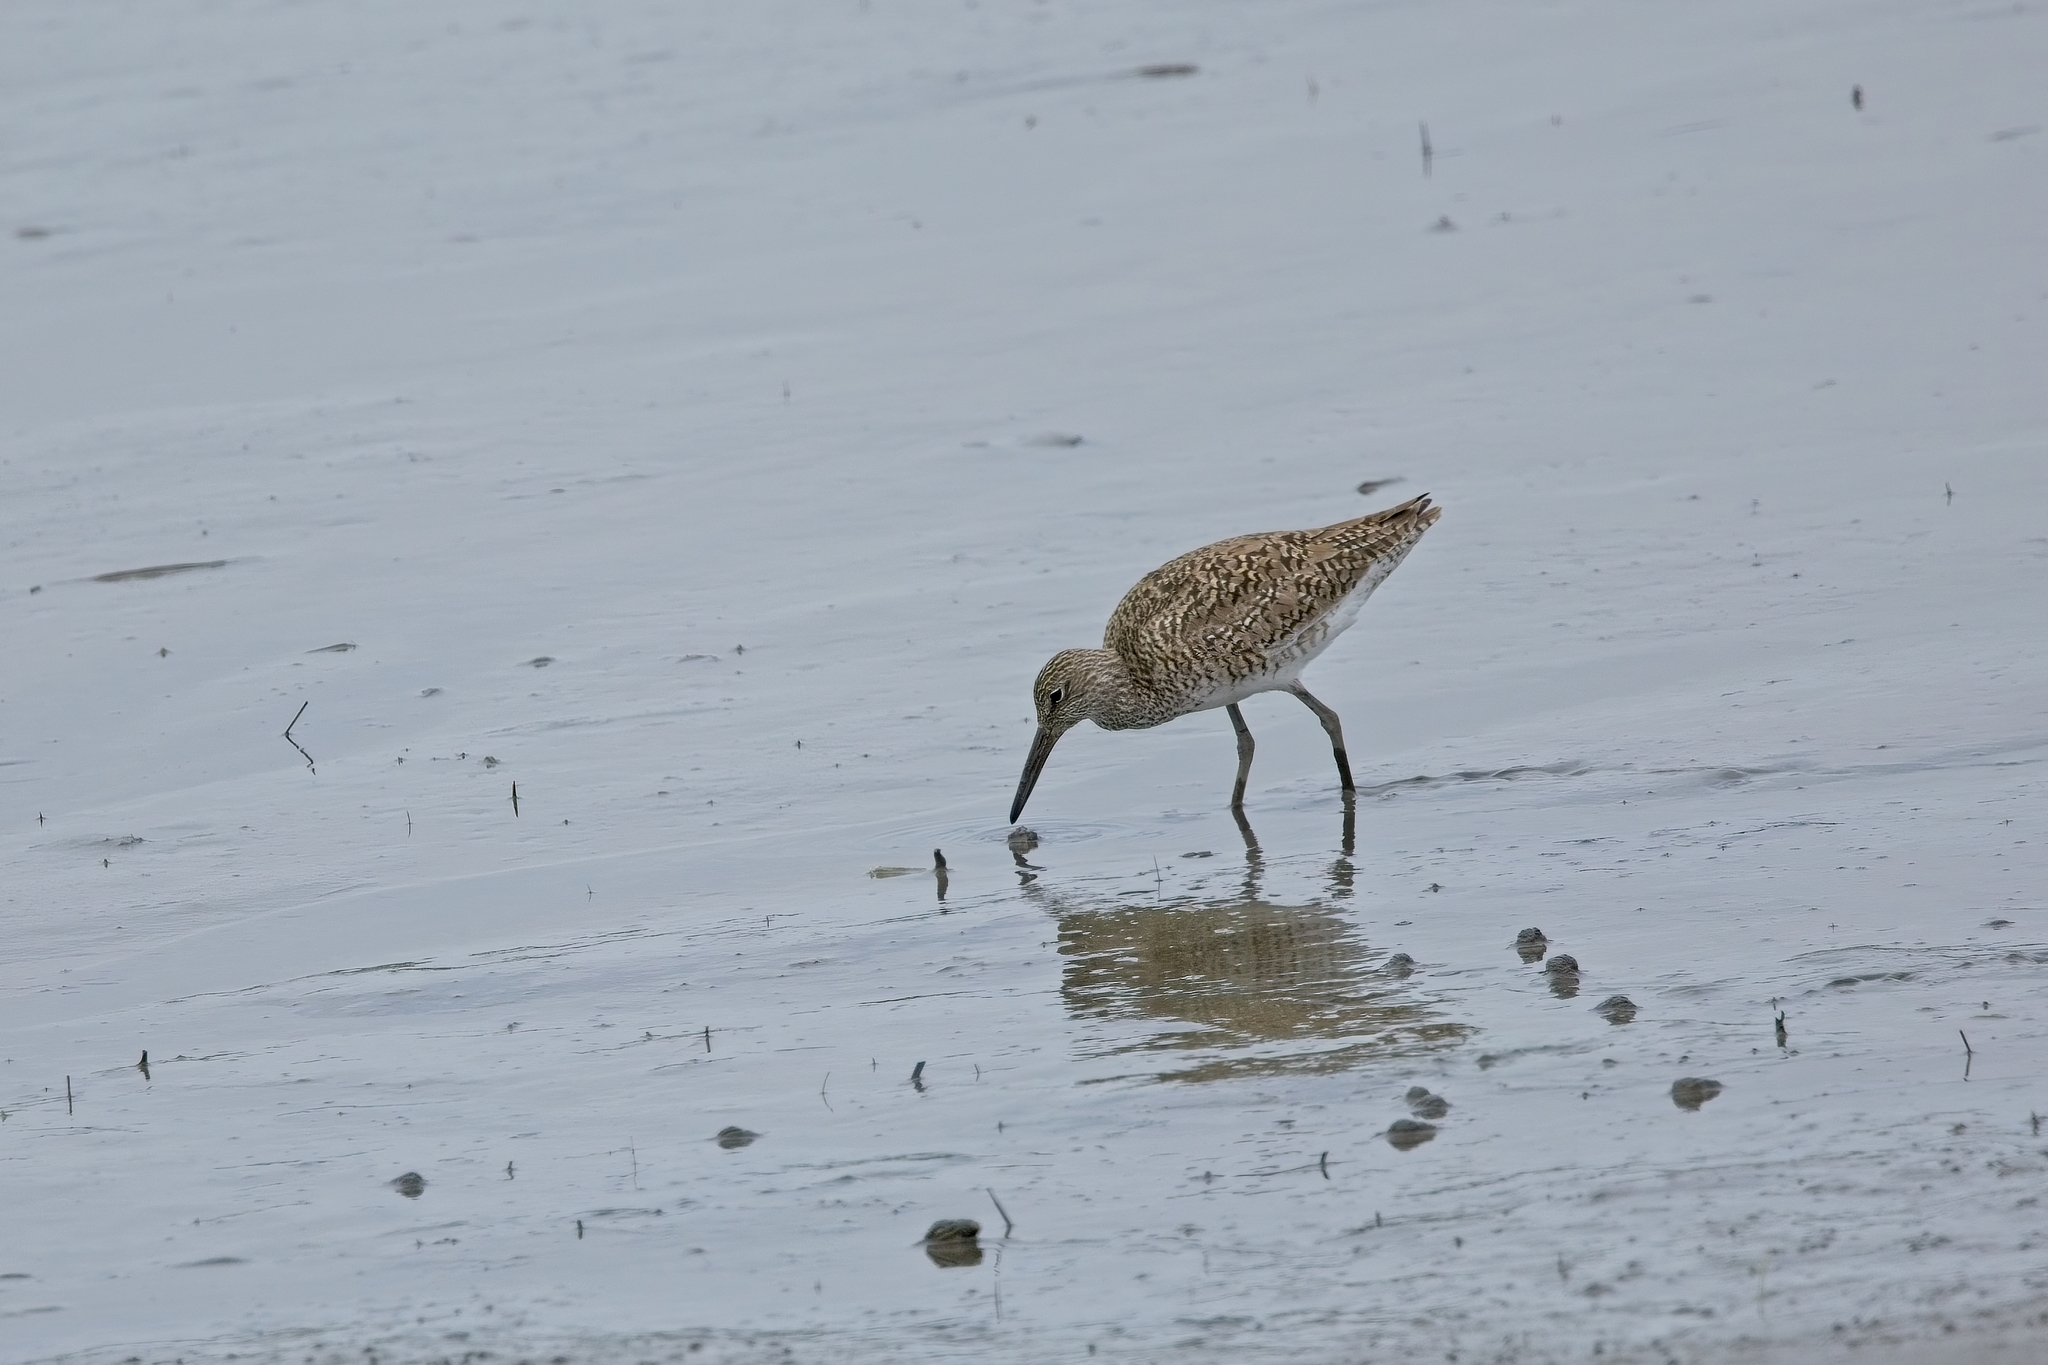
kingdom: Animalia
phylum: Chordata
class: Aves
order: Charadriiformes
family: Scolopacidae
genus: Tringa
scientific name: Tringa semipalmata
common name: Willet
